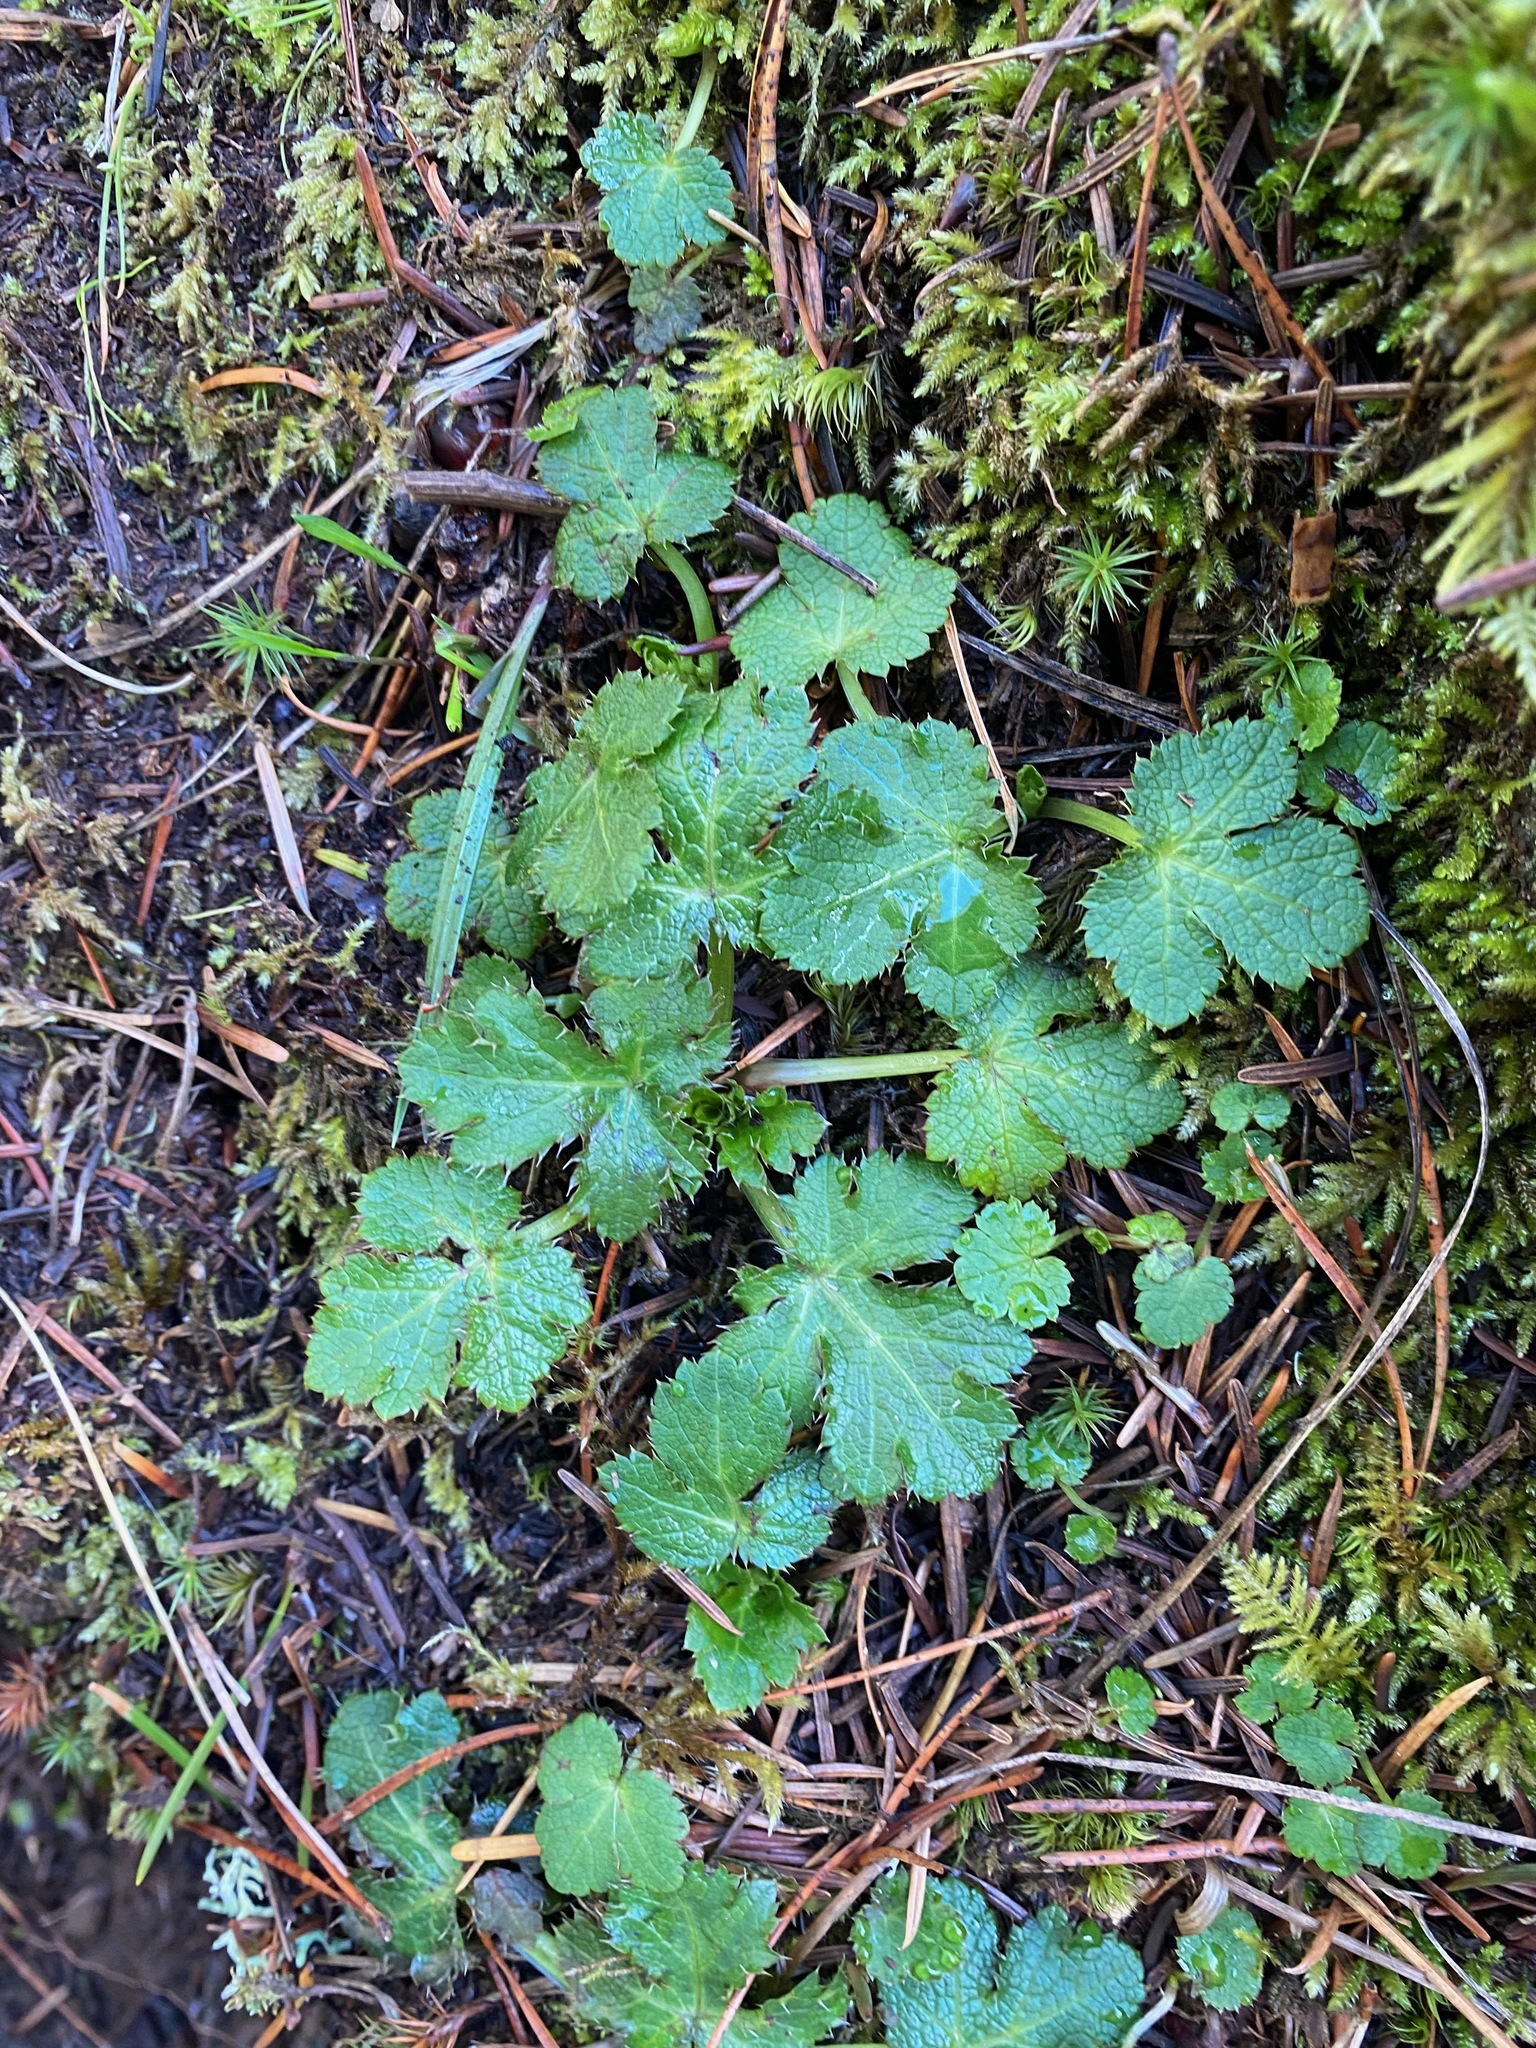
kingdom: Plantae
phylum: Tracheophyta
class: Magnoliopsida
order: Apiales
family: Apiaceae
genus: Sanicula
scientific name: Sanicula crassicaulis
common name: Western snakeroot
